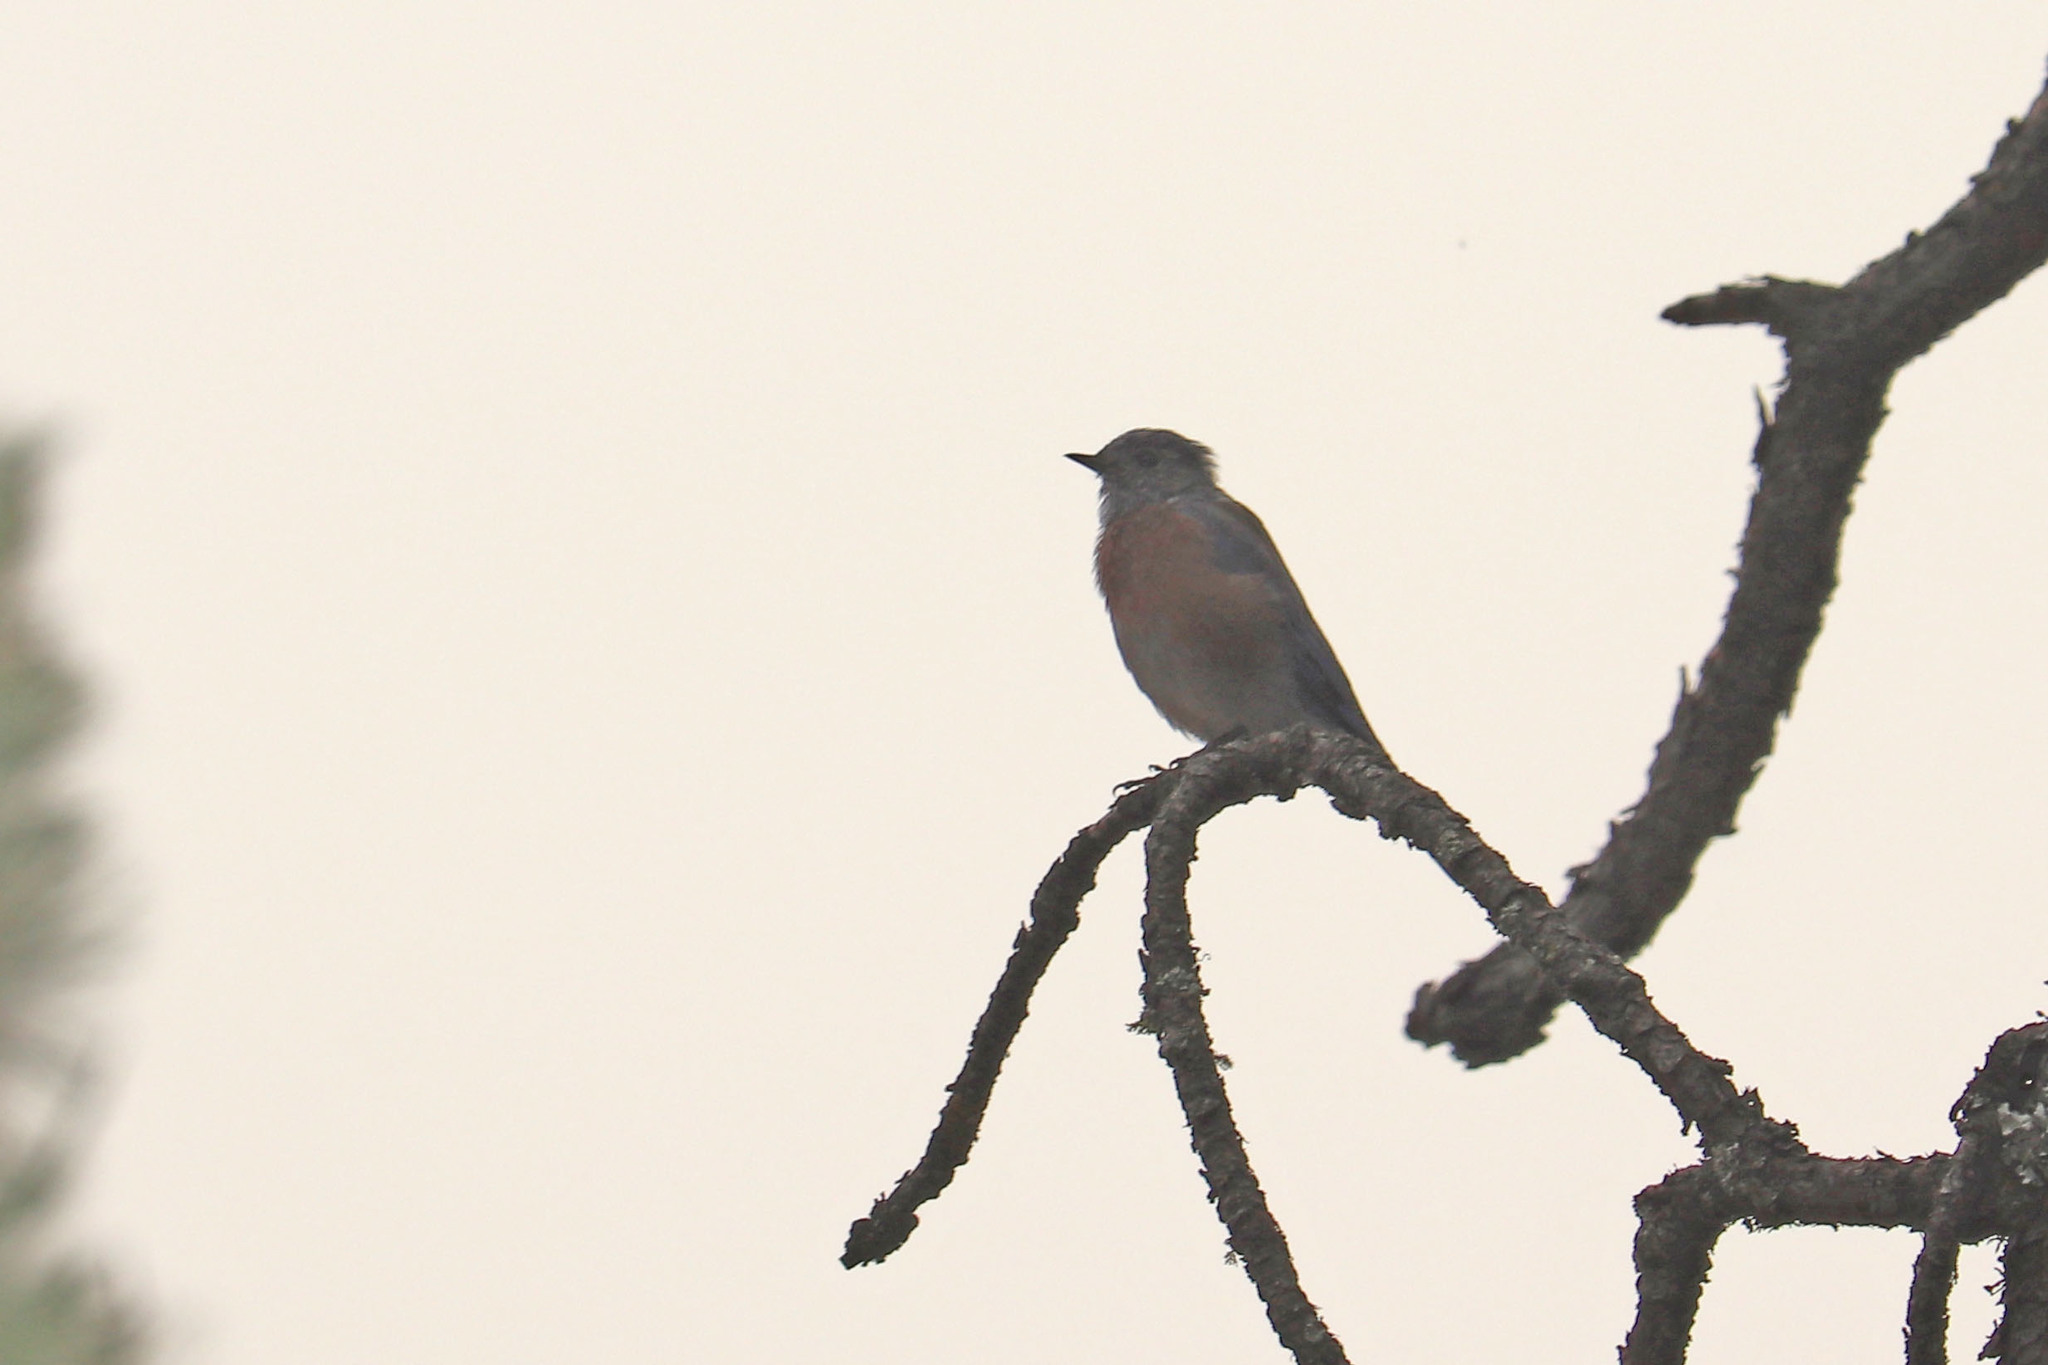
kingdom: Animalia
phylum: Chordata
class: Aves
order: Passeriformes
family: Turdidae
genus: Sialia
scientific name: Sialia mexicana
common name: Western bluebird
